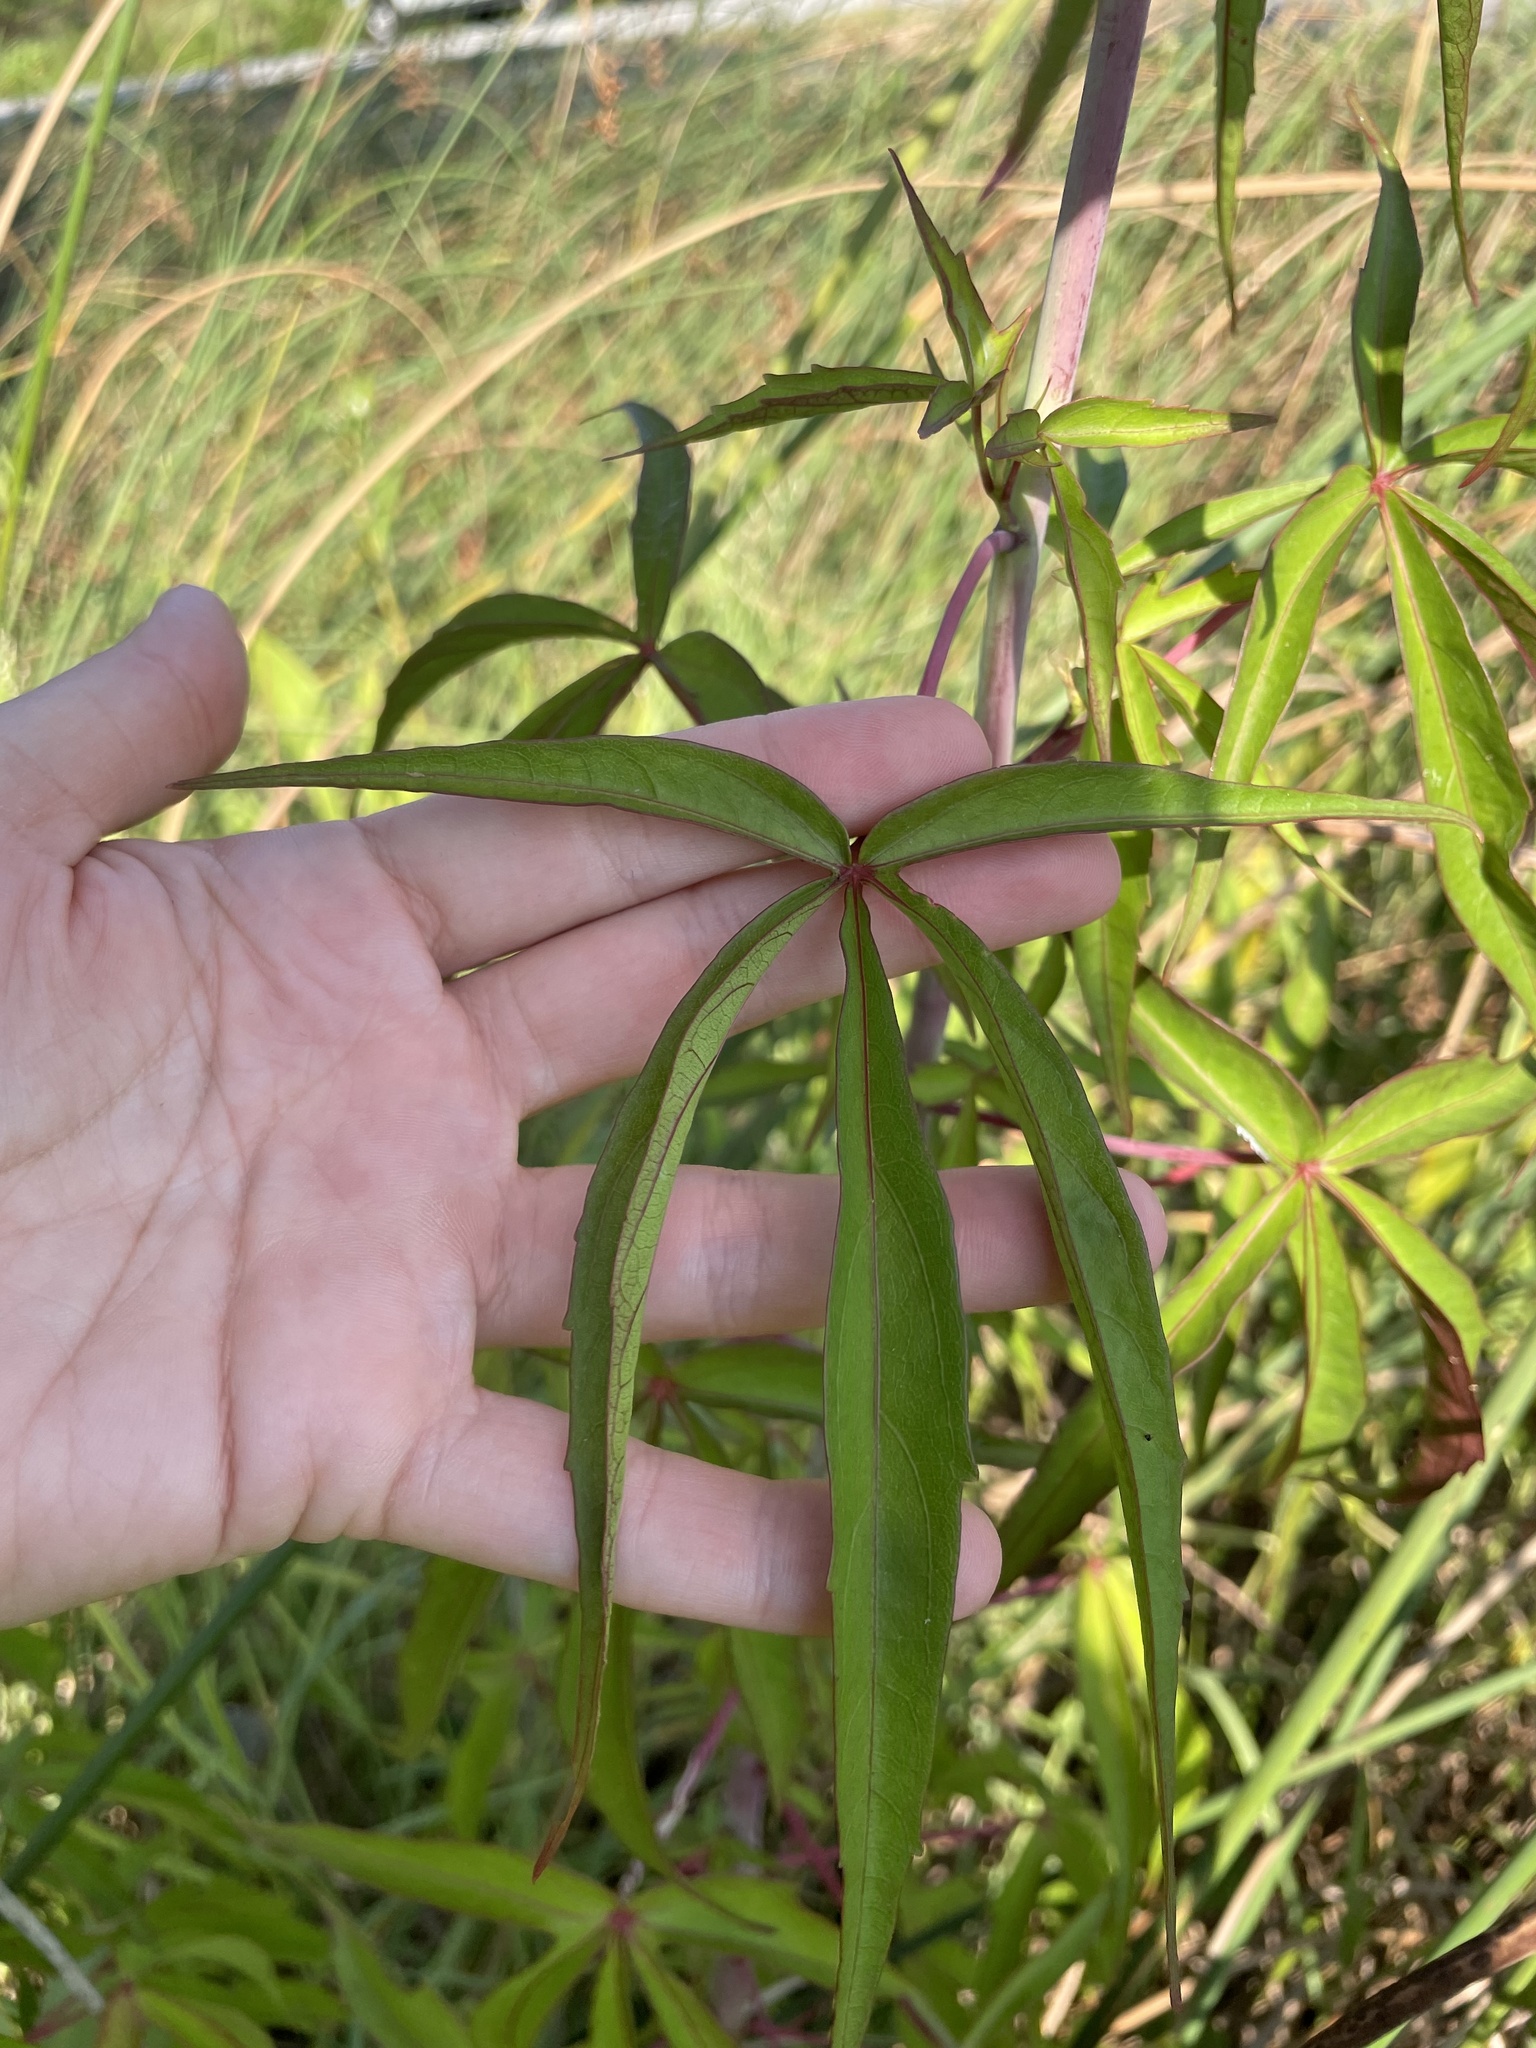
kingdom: Plantae
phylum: Tracheophyta
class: Magnoliopsida
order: Malvales
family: Malvaceae
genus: Hibiscus
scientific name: Hibiscus coccineus
